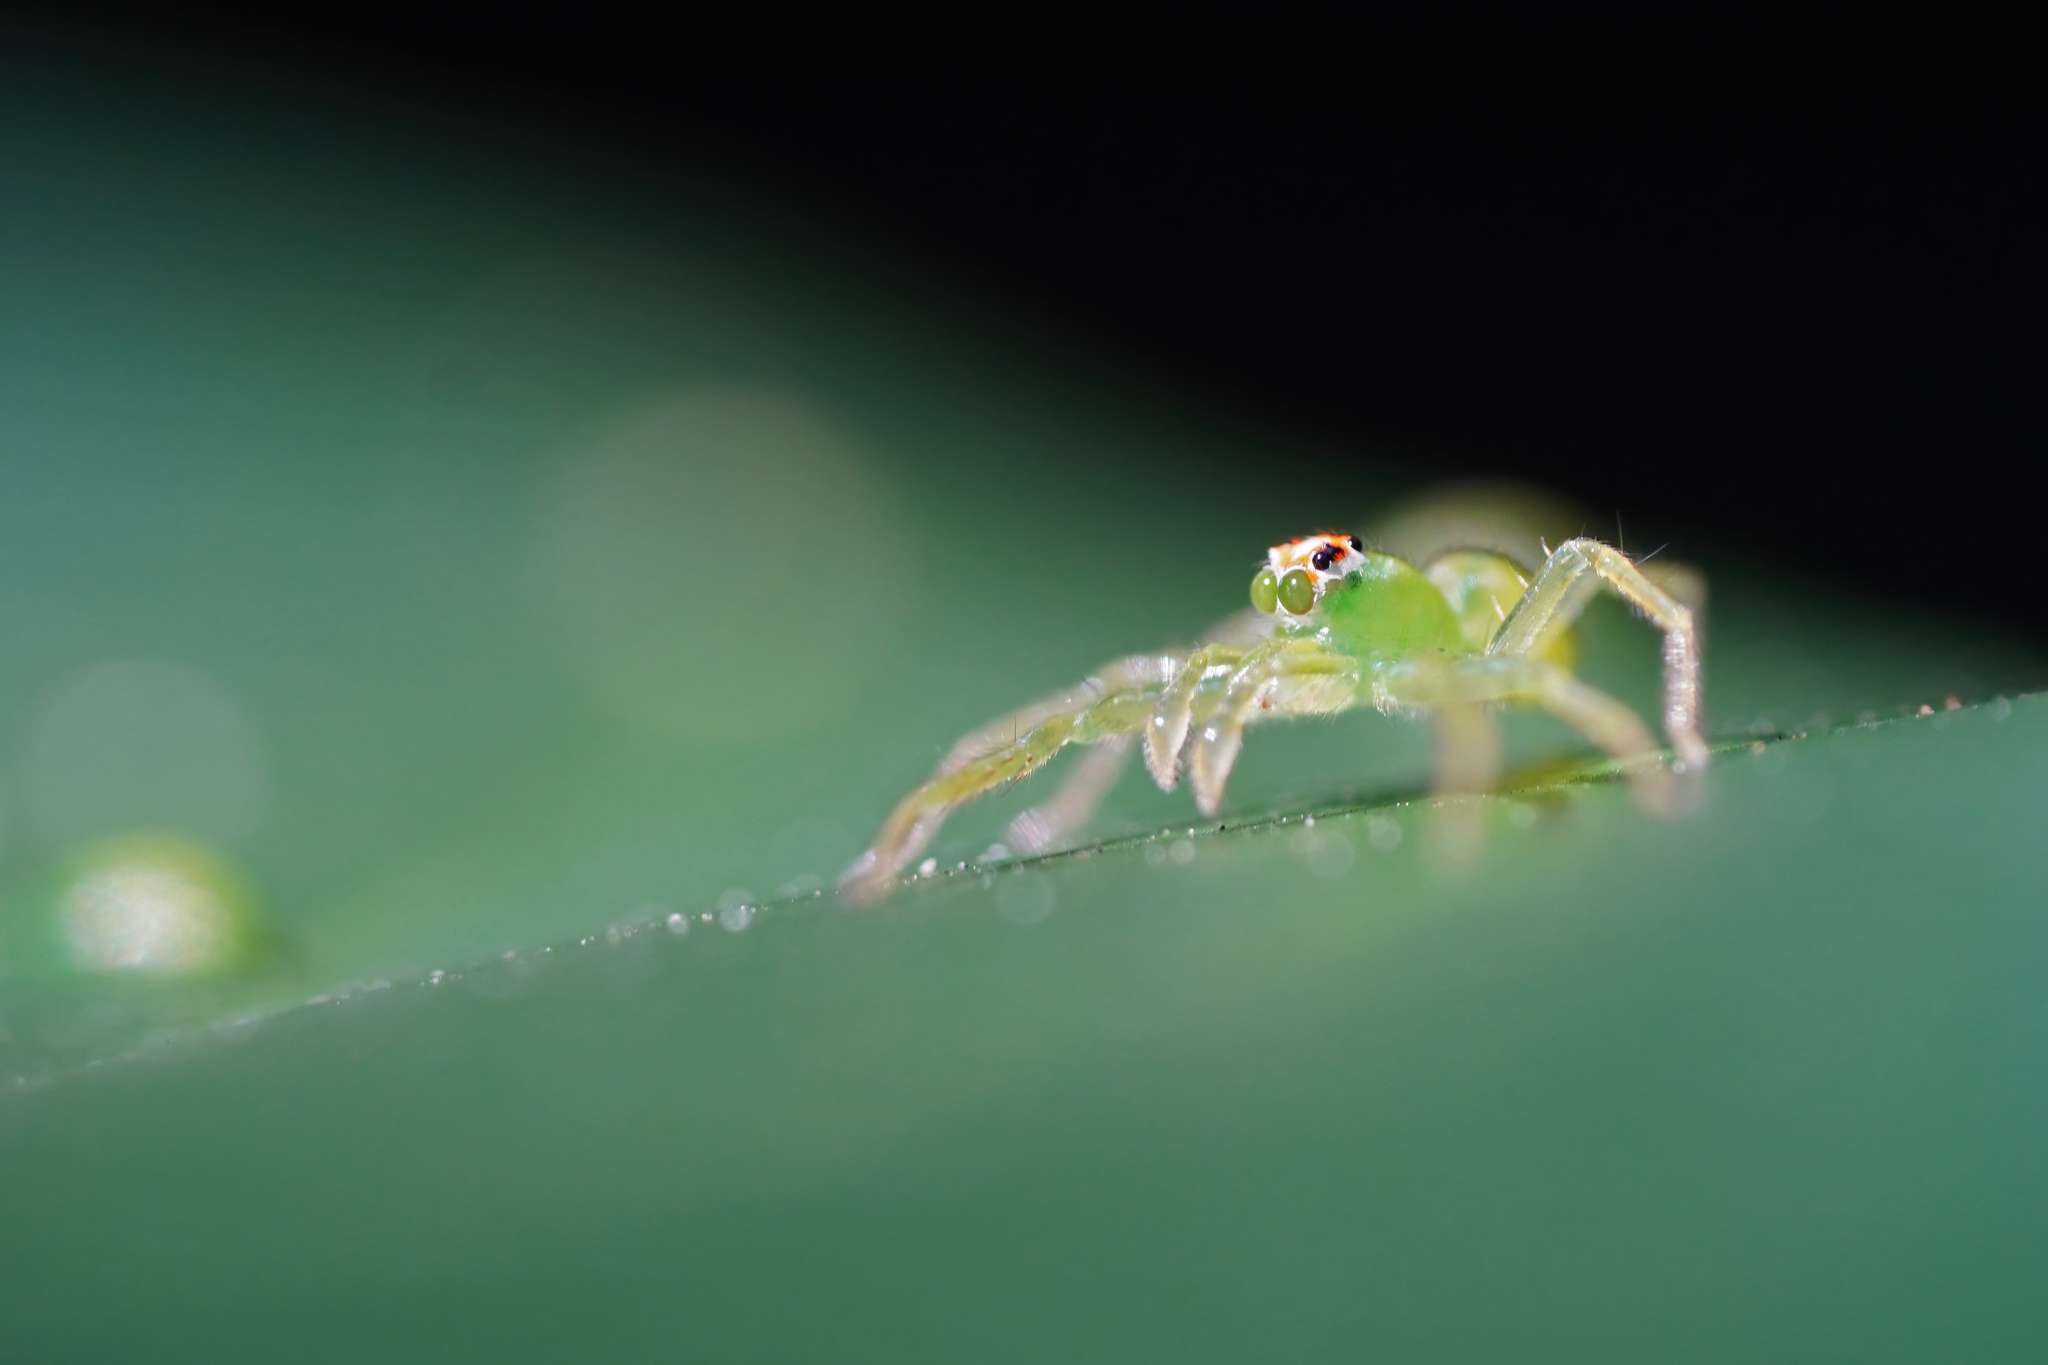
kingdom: Animalia
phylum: Arthropoda
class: Arachnida
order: Araneae
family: Salticidae
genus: Lyssomanes
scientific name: Lyssomanes viridis
